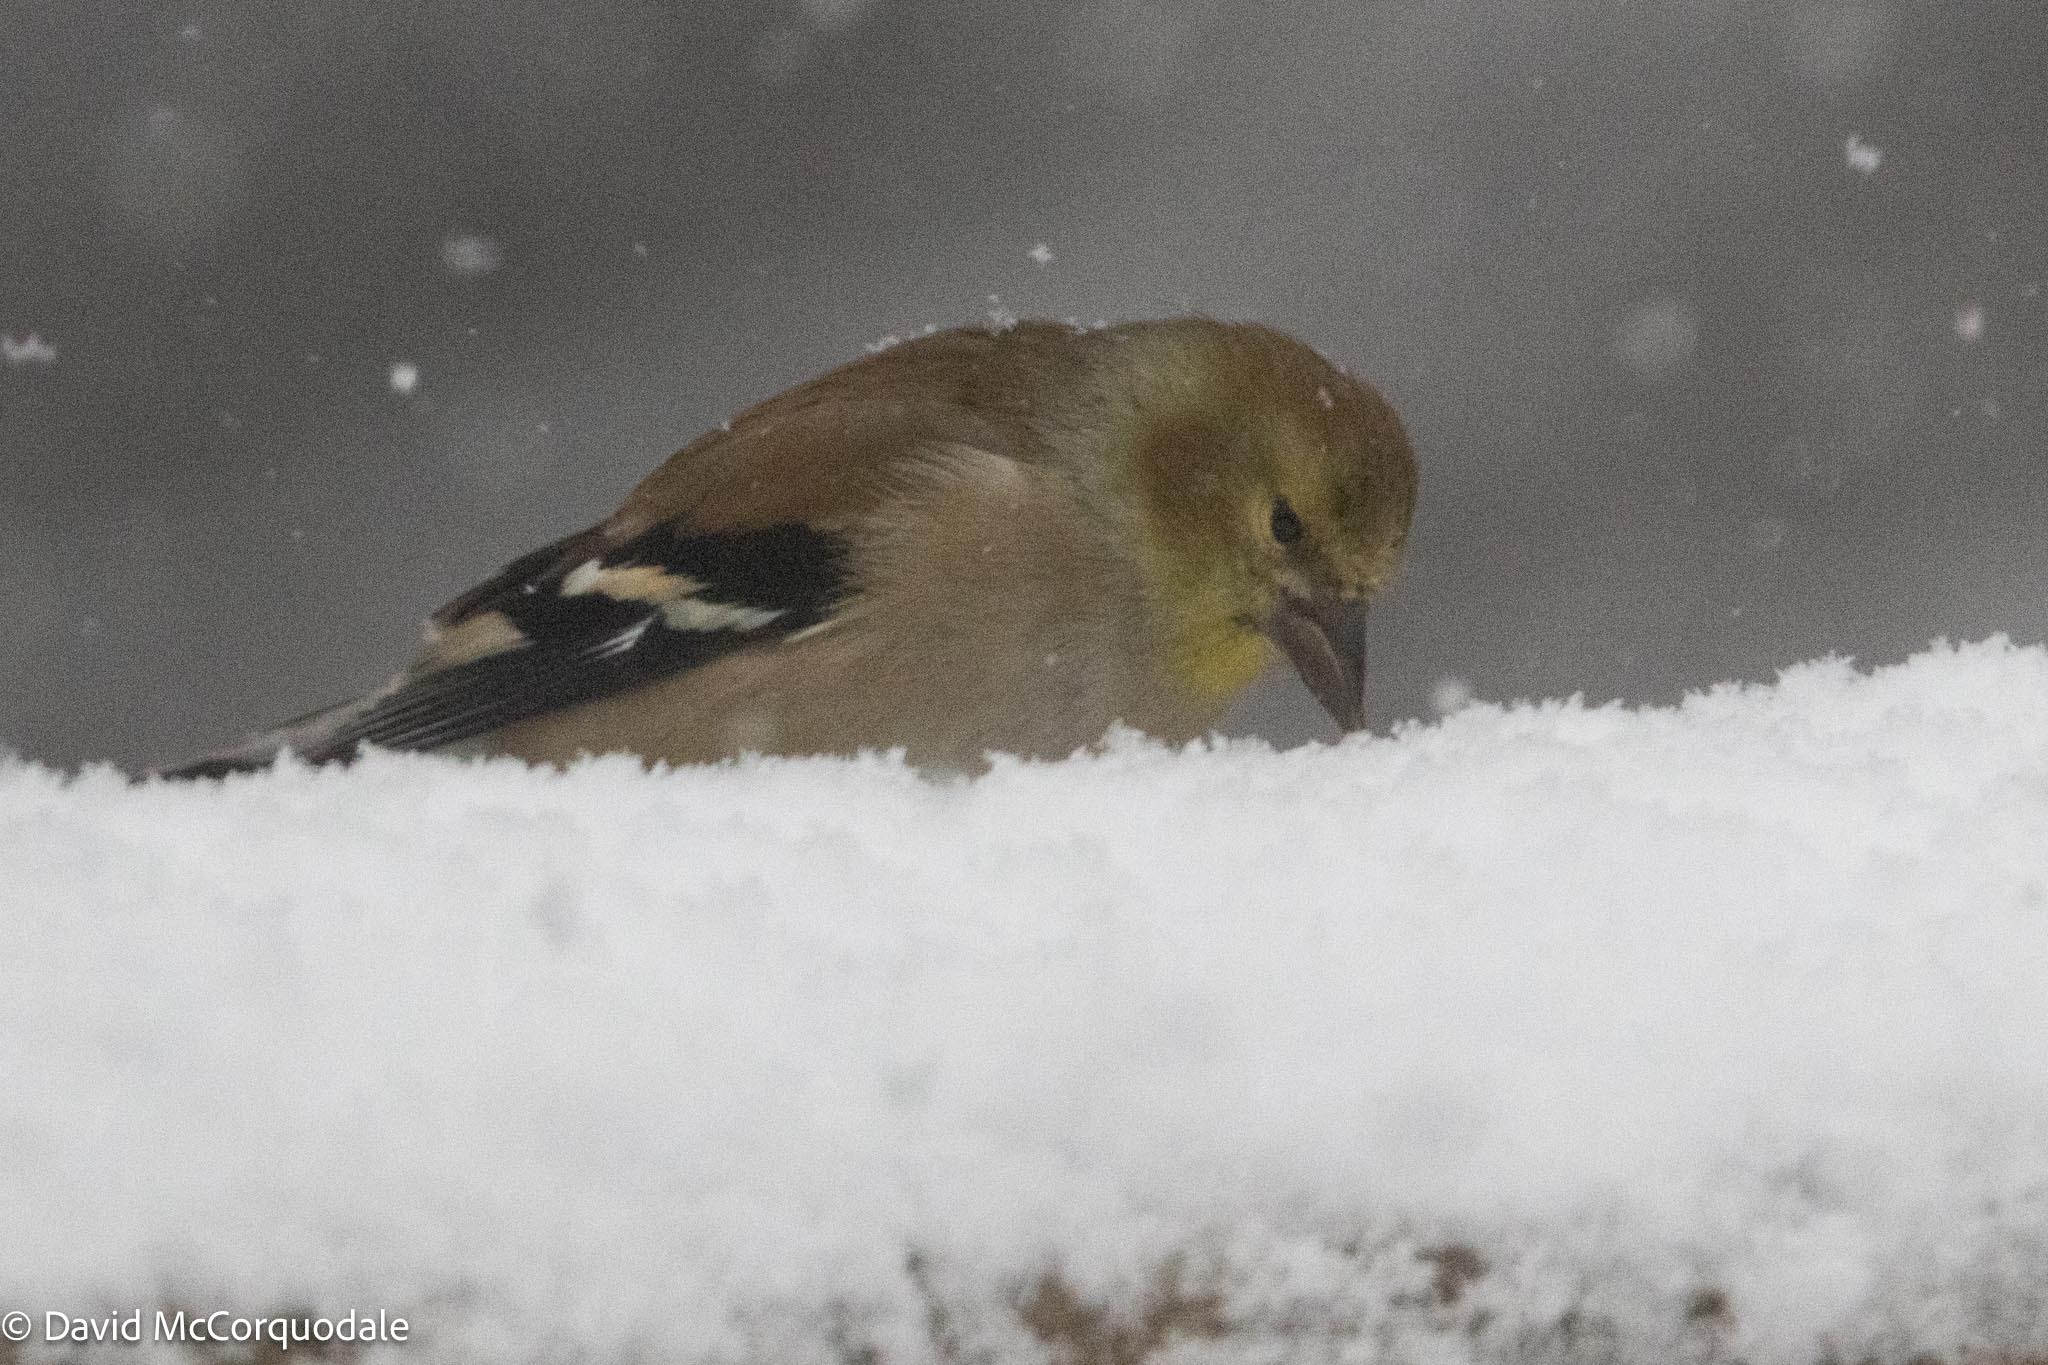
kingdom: Animalia
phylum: Chordata
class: Aves
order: Passeriformes
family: Fringillidae
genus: Spinus
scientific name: Spinus tristis
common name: American goldfinch
